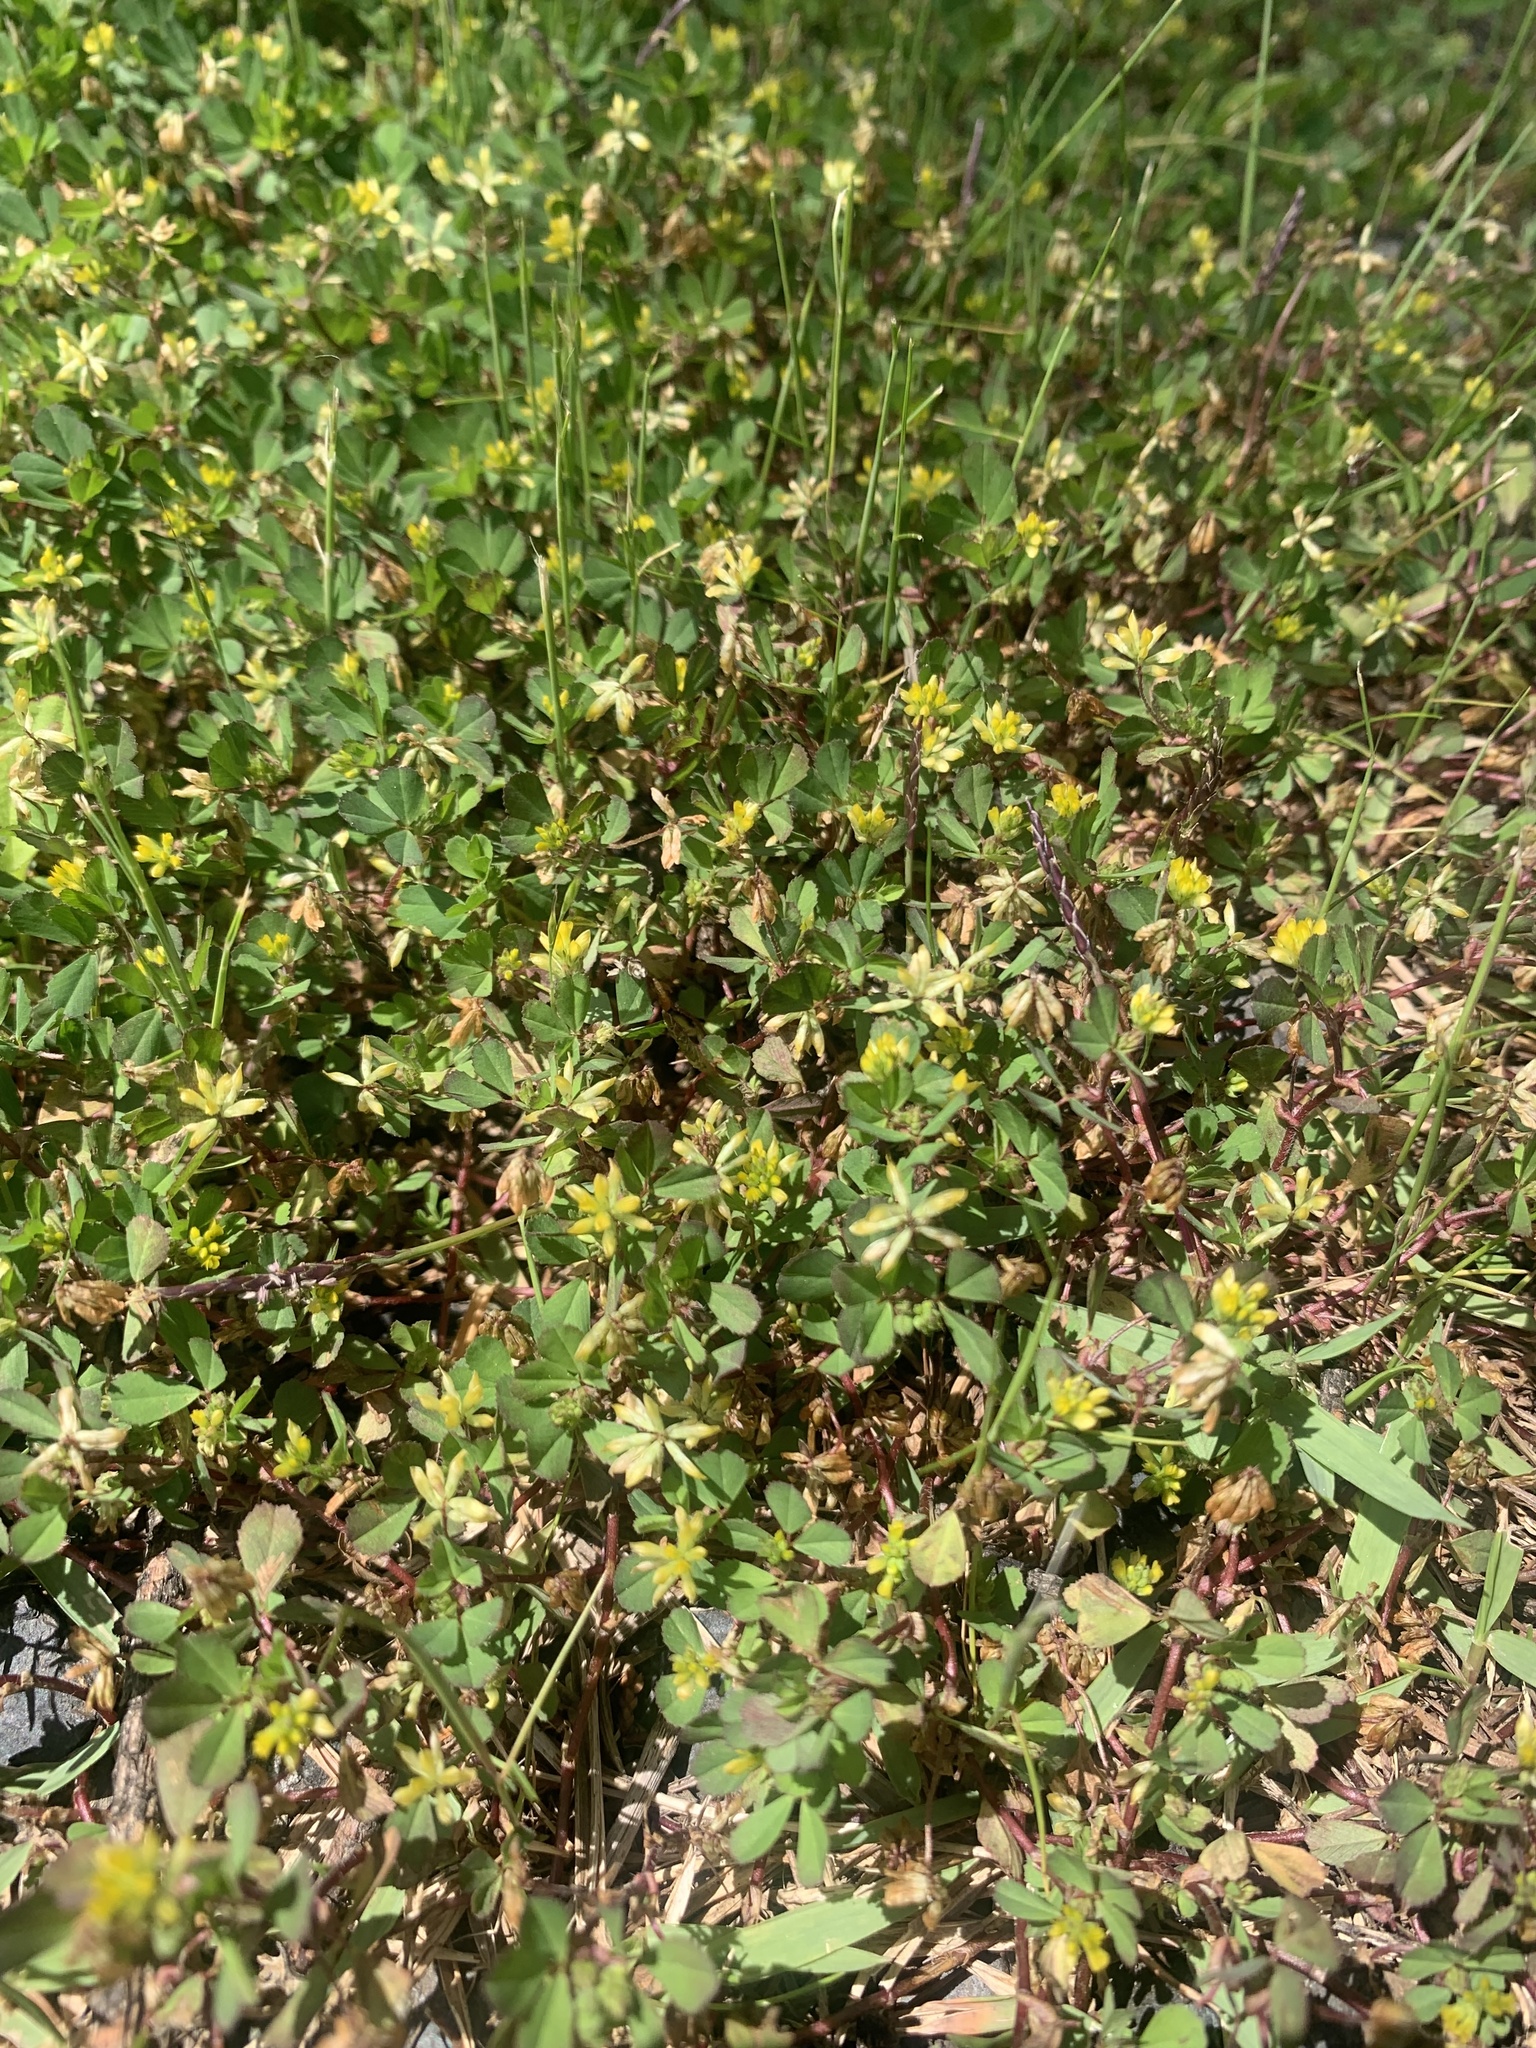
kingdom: Plantae
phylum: Tracheophyta
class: Magnoliopsida
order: Fabales
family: Fabaceae
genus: Trifolium
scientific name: Trifolium dubium
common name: Suckling clover
